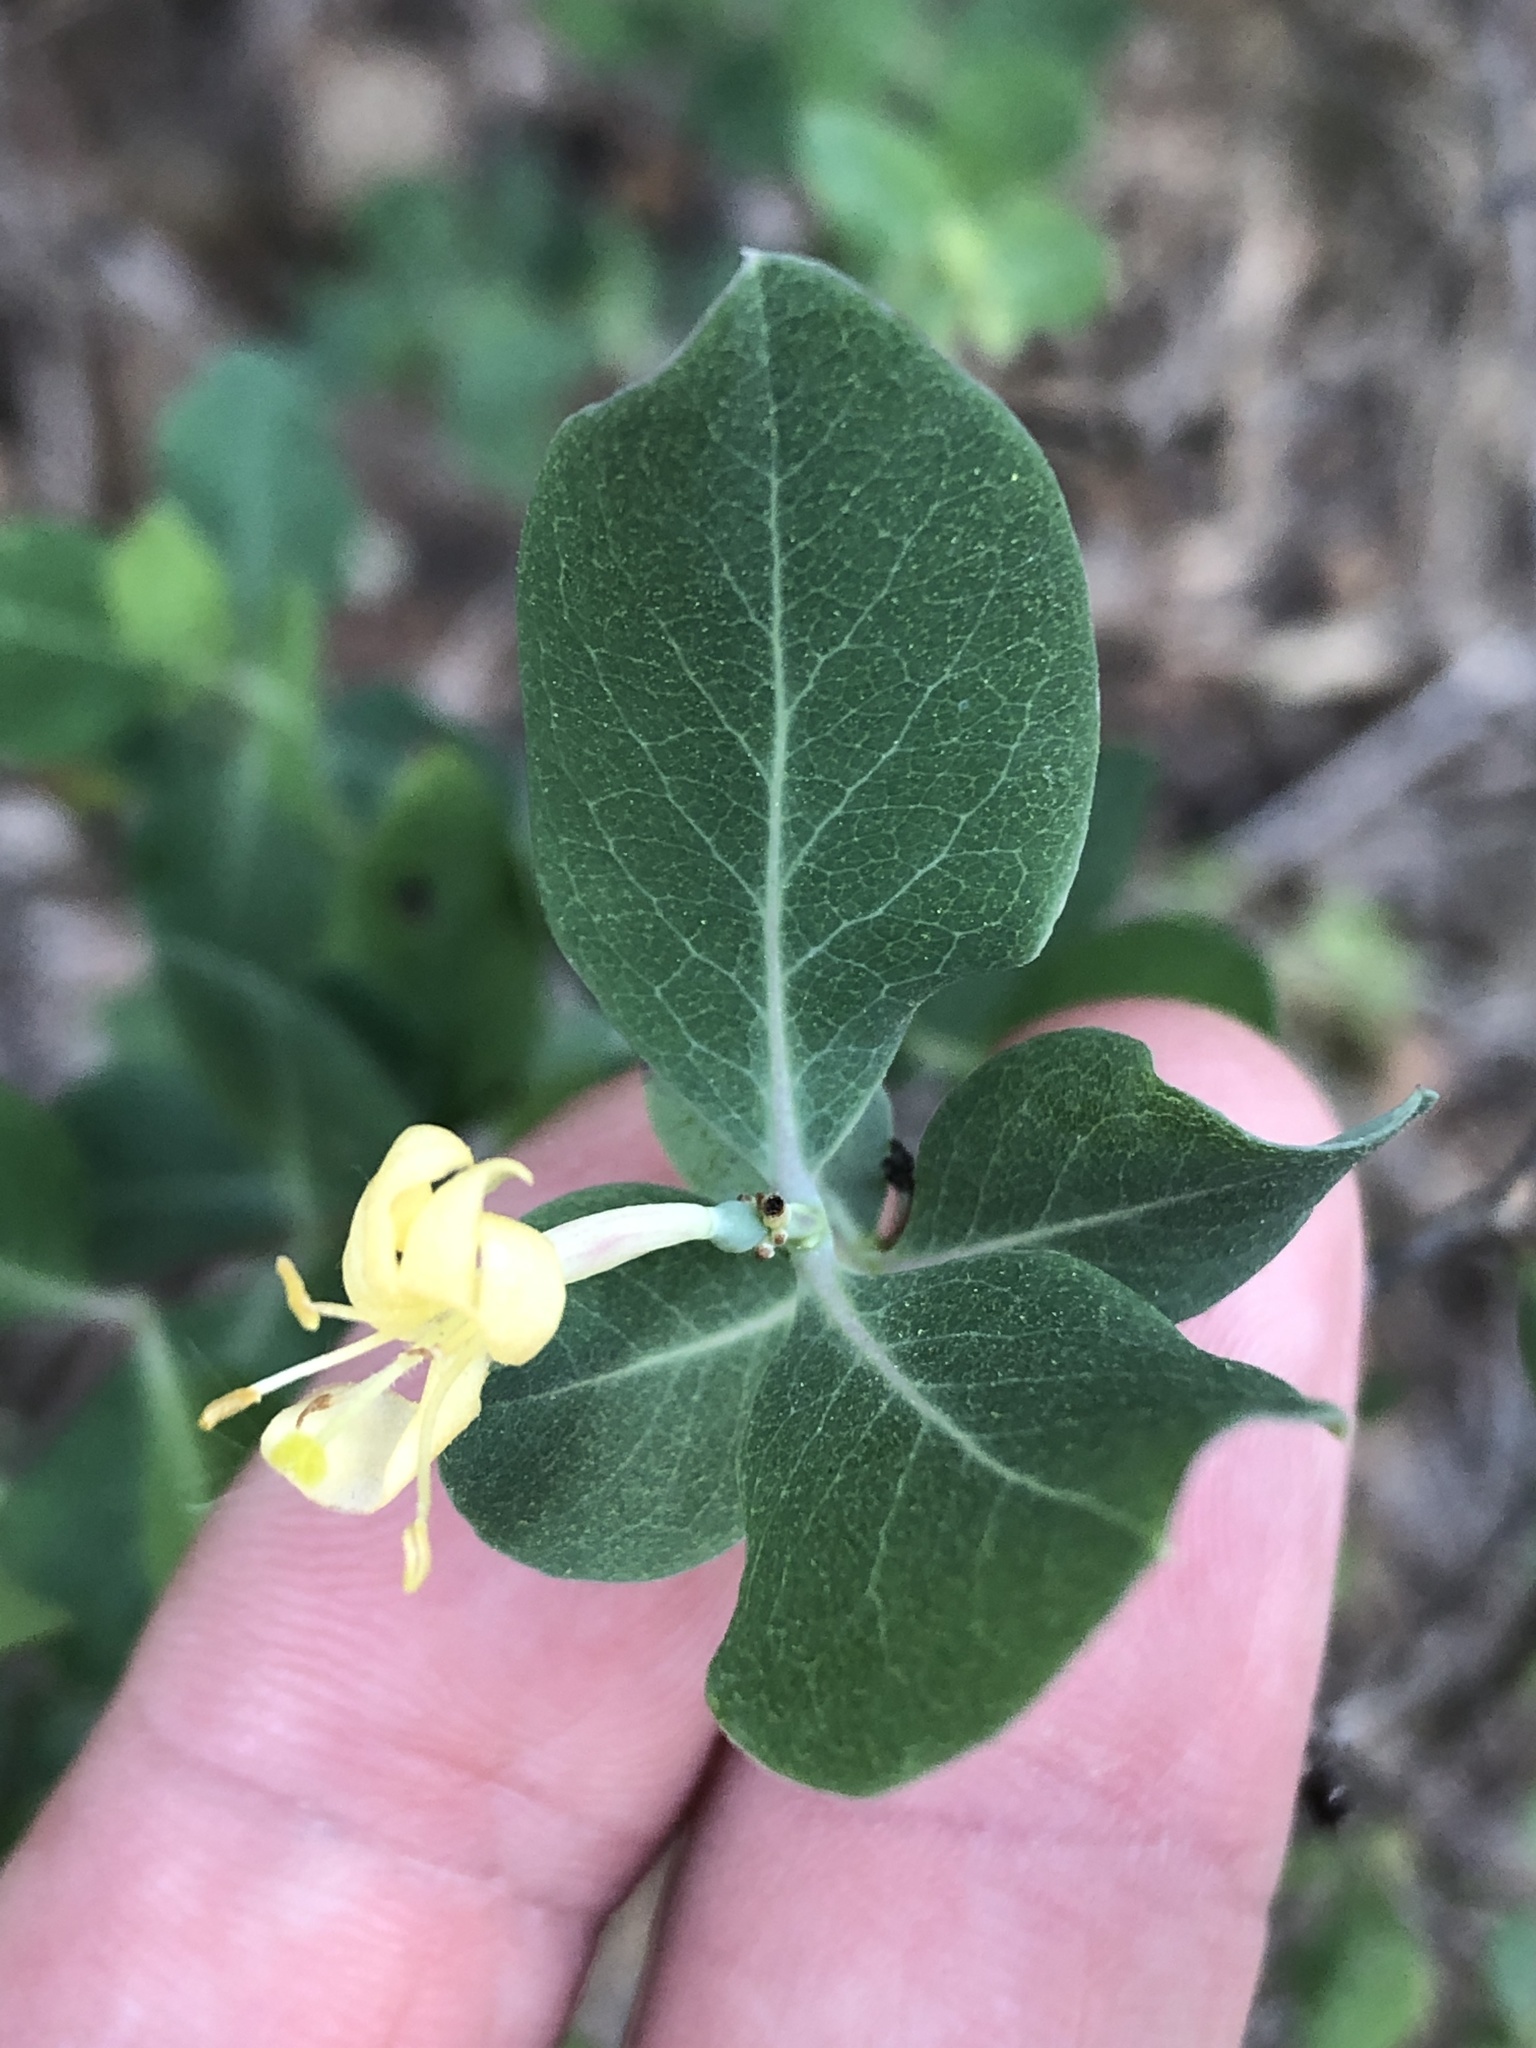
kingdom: Plantae
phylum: Tracheophyta
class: Magnoliopsida
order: Dipsacales
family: Caprifoliaceae
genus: Lonicera
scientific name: Lonicera albiflora
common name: White honeysuckle
